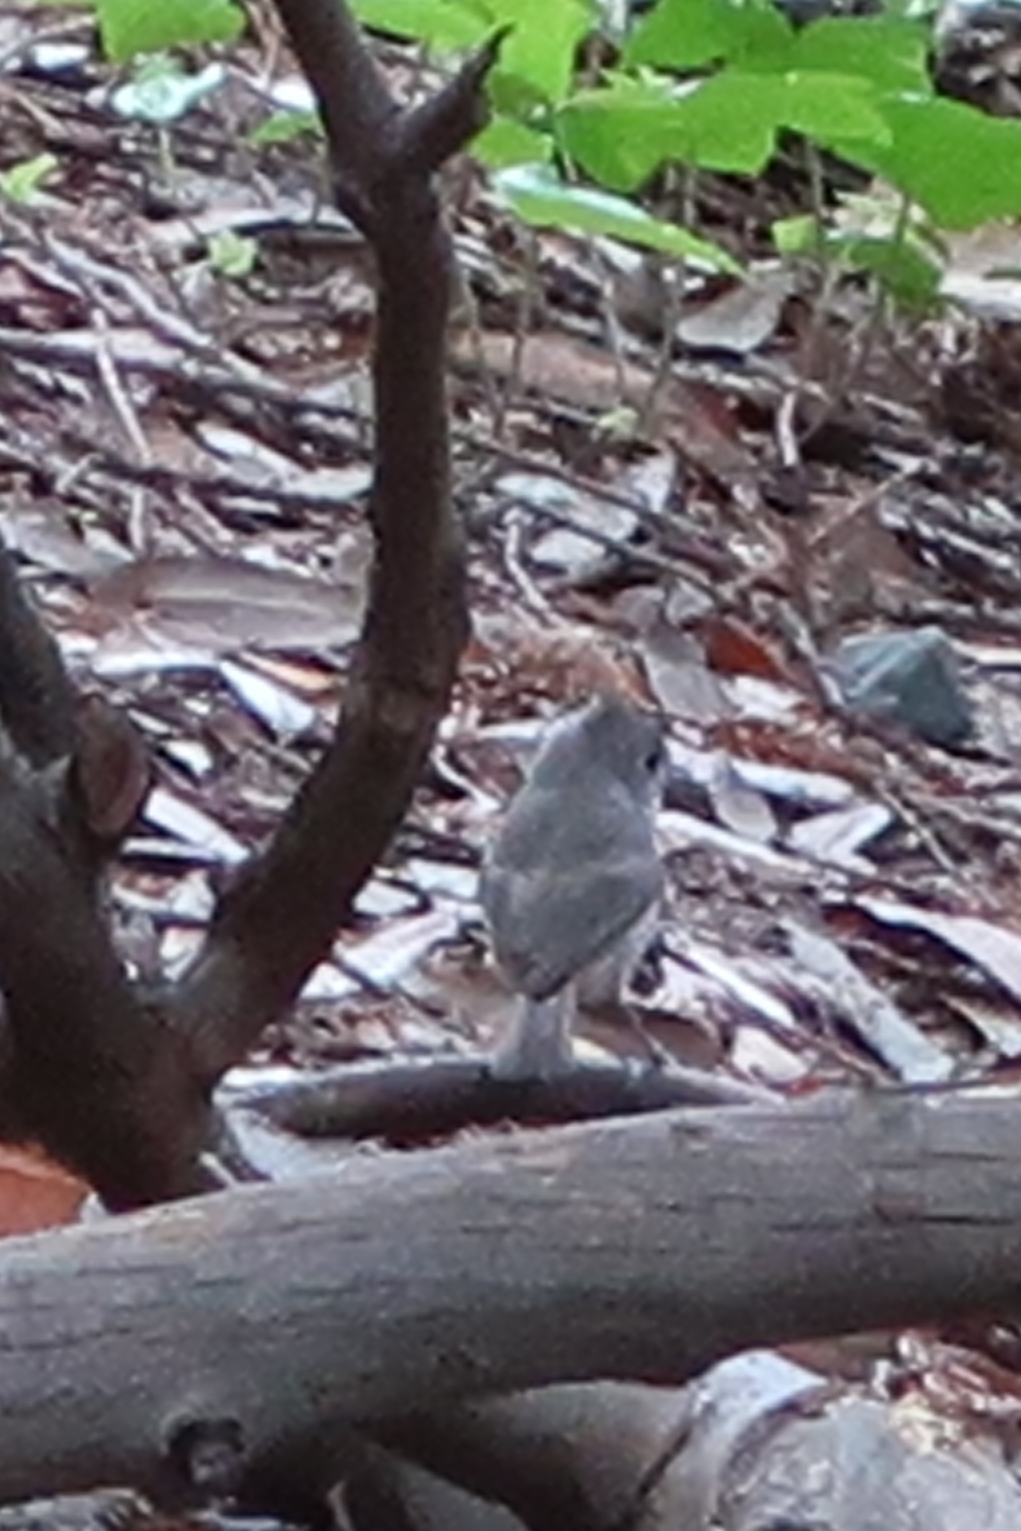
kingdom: Animalia
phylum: Chordata
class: Aves
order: Passeriformes
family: Paridae
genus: Baeolophus
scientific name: Baeolophus inornatus
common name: Oak titmouse
